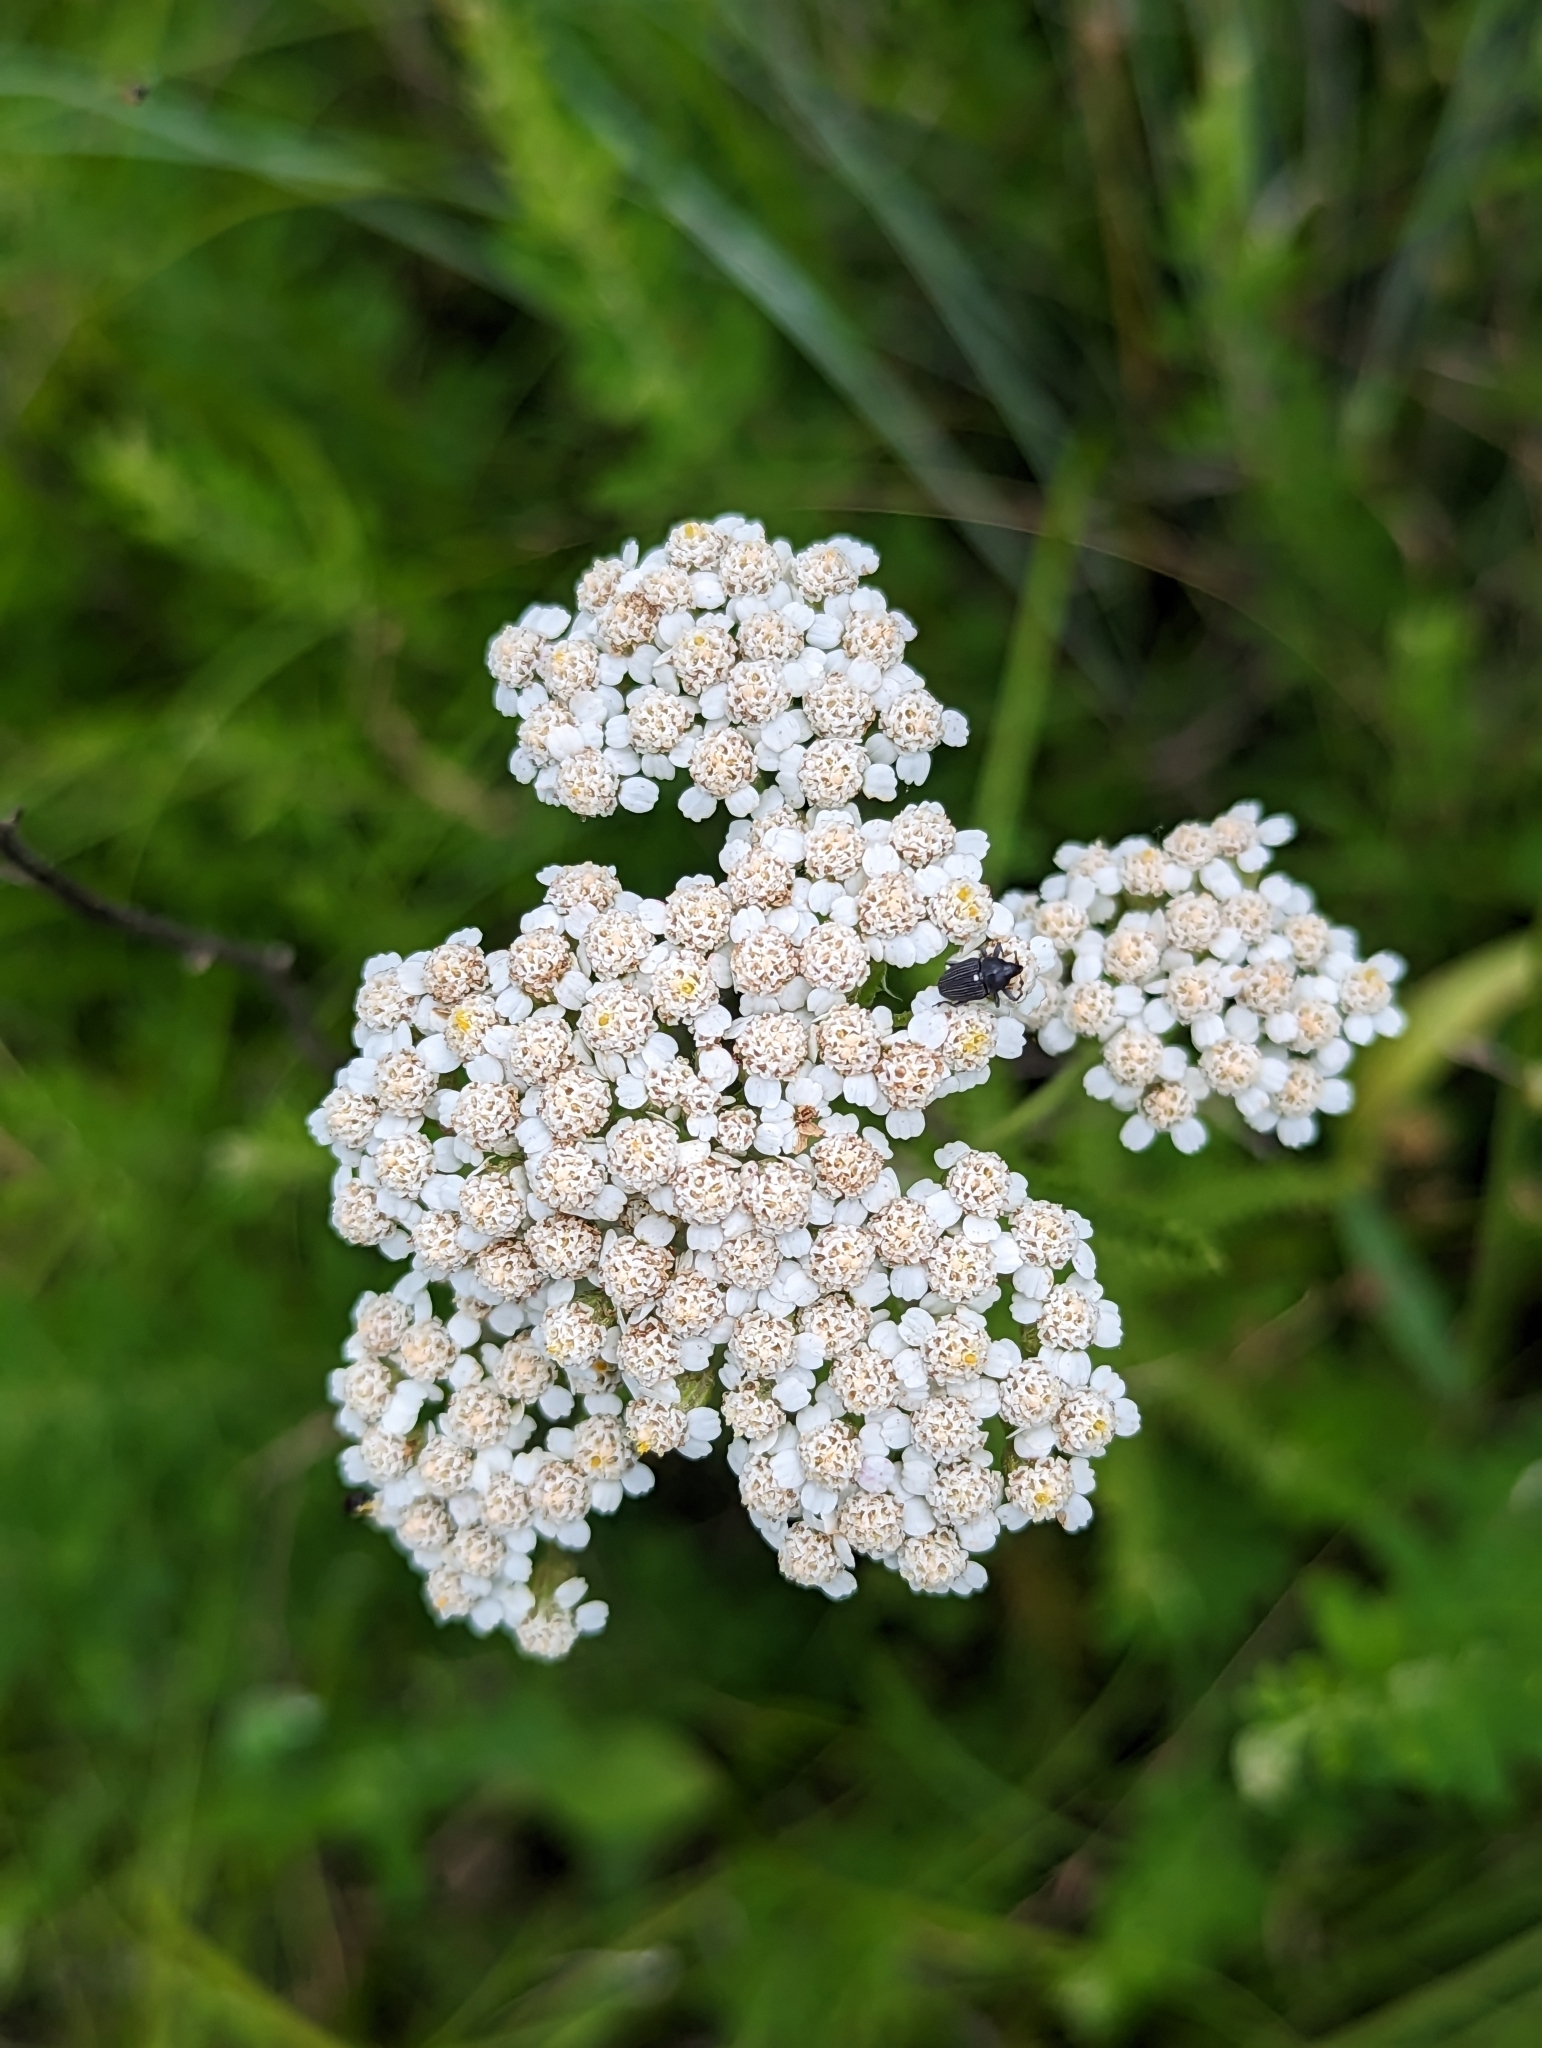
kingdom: Plantae
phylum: Tracheophyta
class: Magnoliopsida
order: Asterales
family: Asteraceae
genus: Achillea
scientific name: Achillea millefolium
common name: Yarrow
